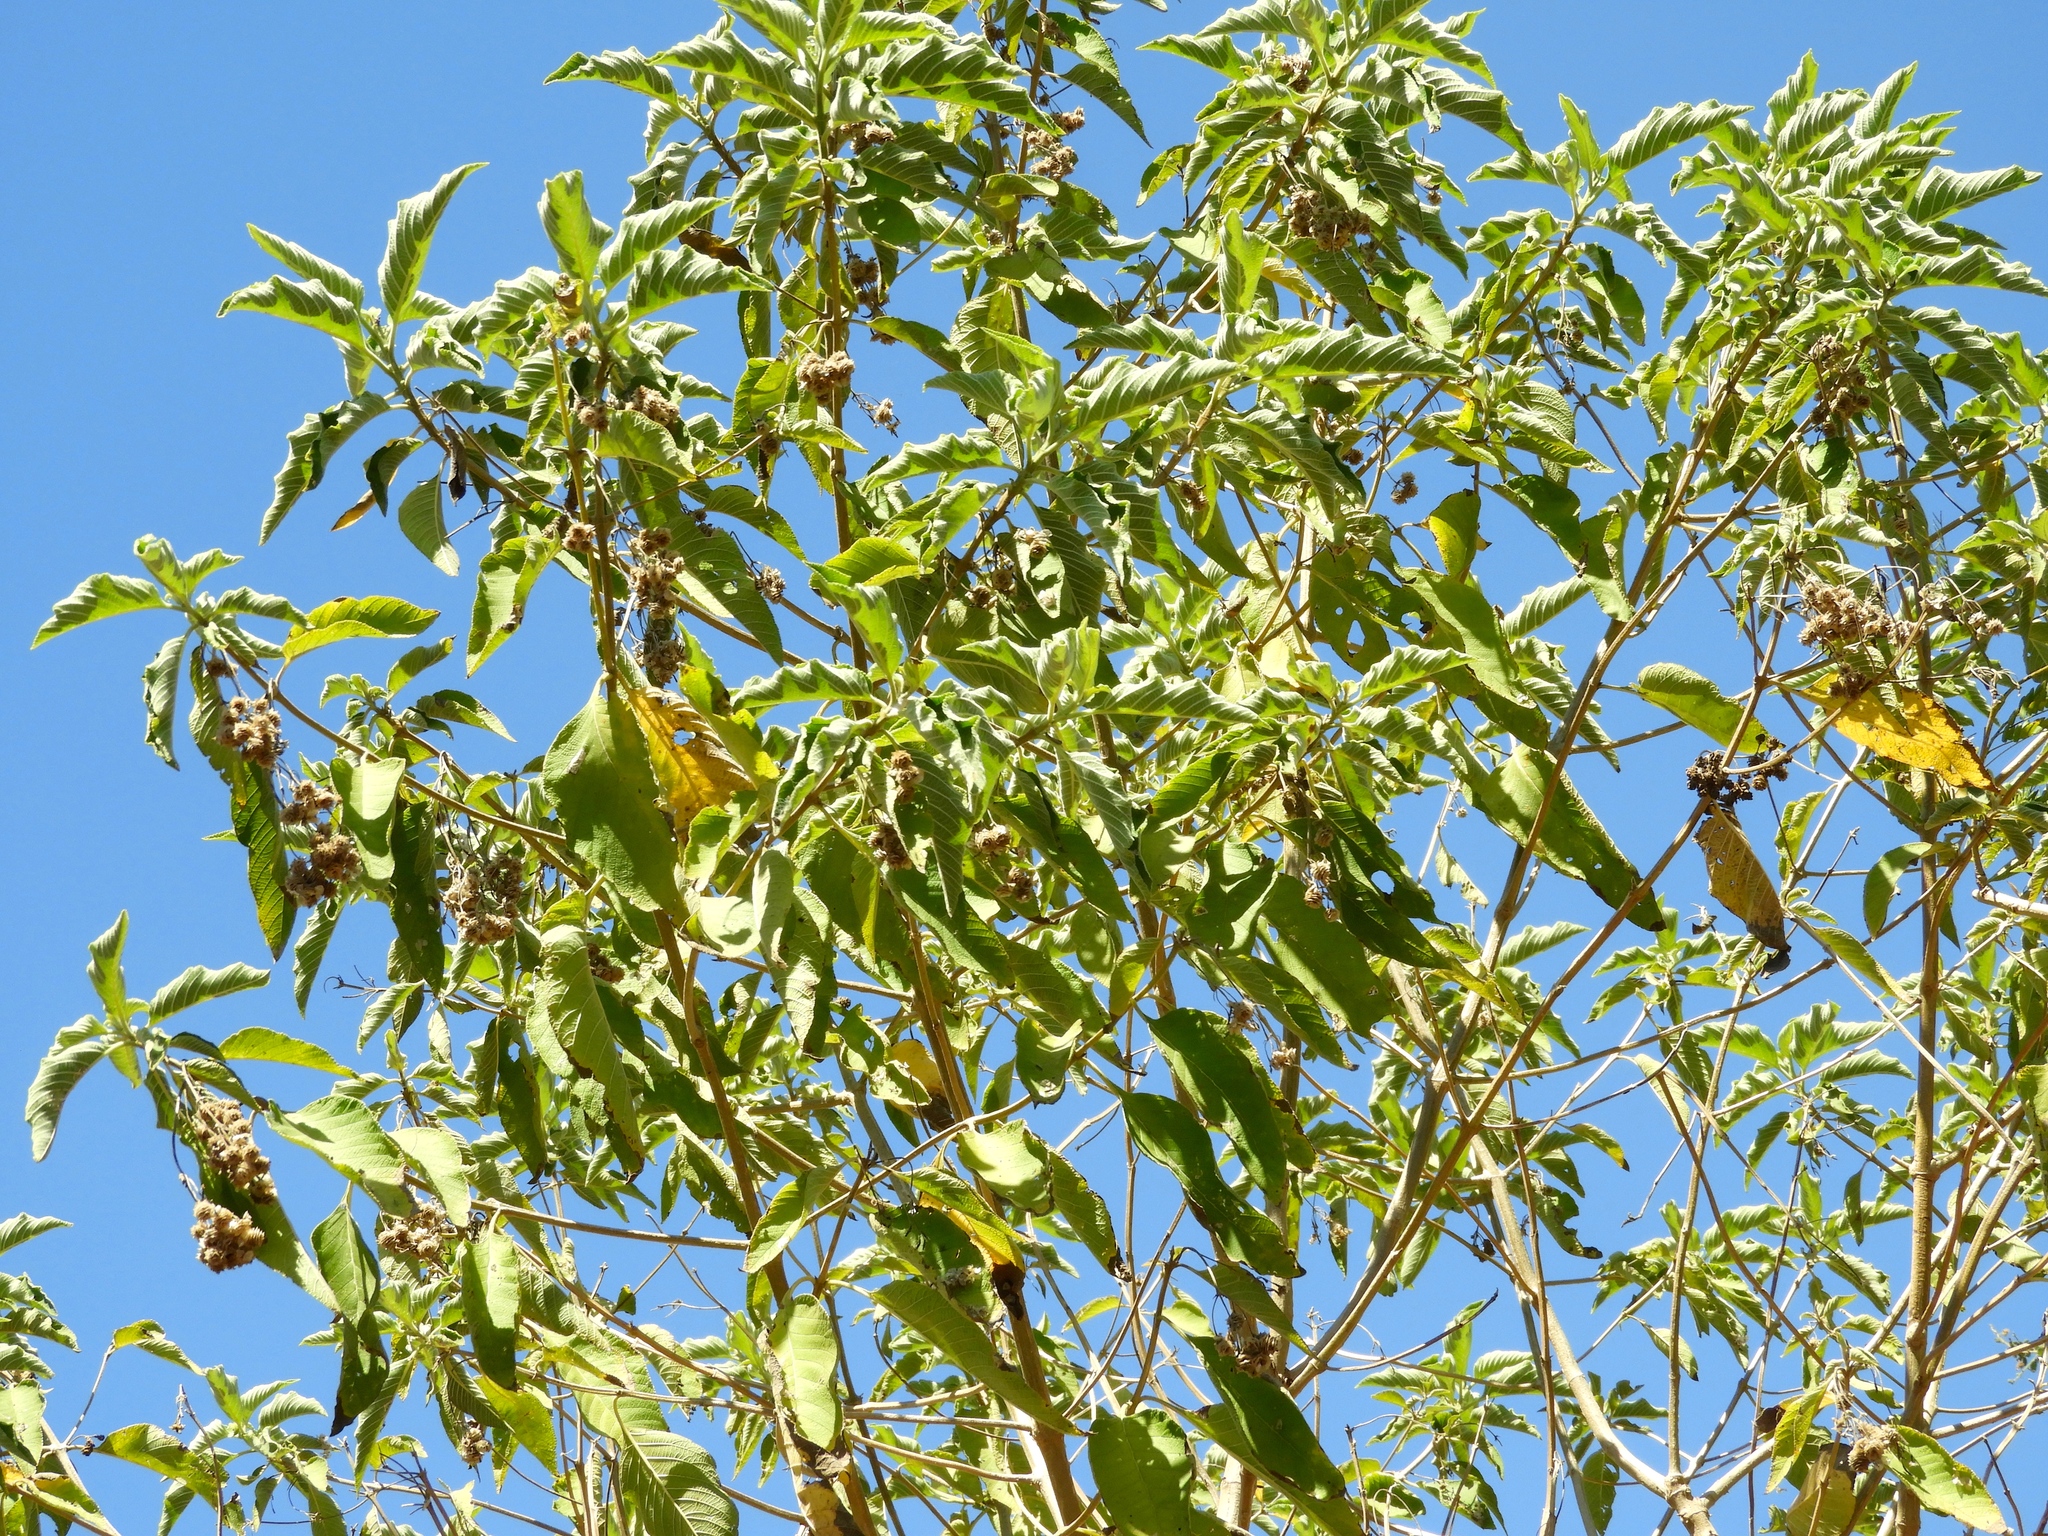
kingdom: Plantae
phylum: Tracheophyta
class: Magnoliopsida
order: Lamiales
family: Verbenaceae
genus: Lippia
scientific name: Lippia umbellata
